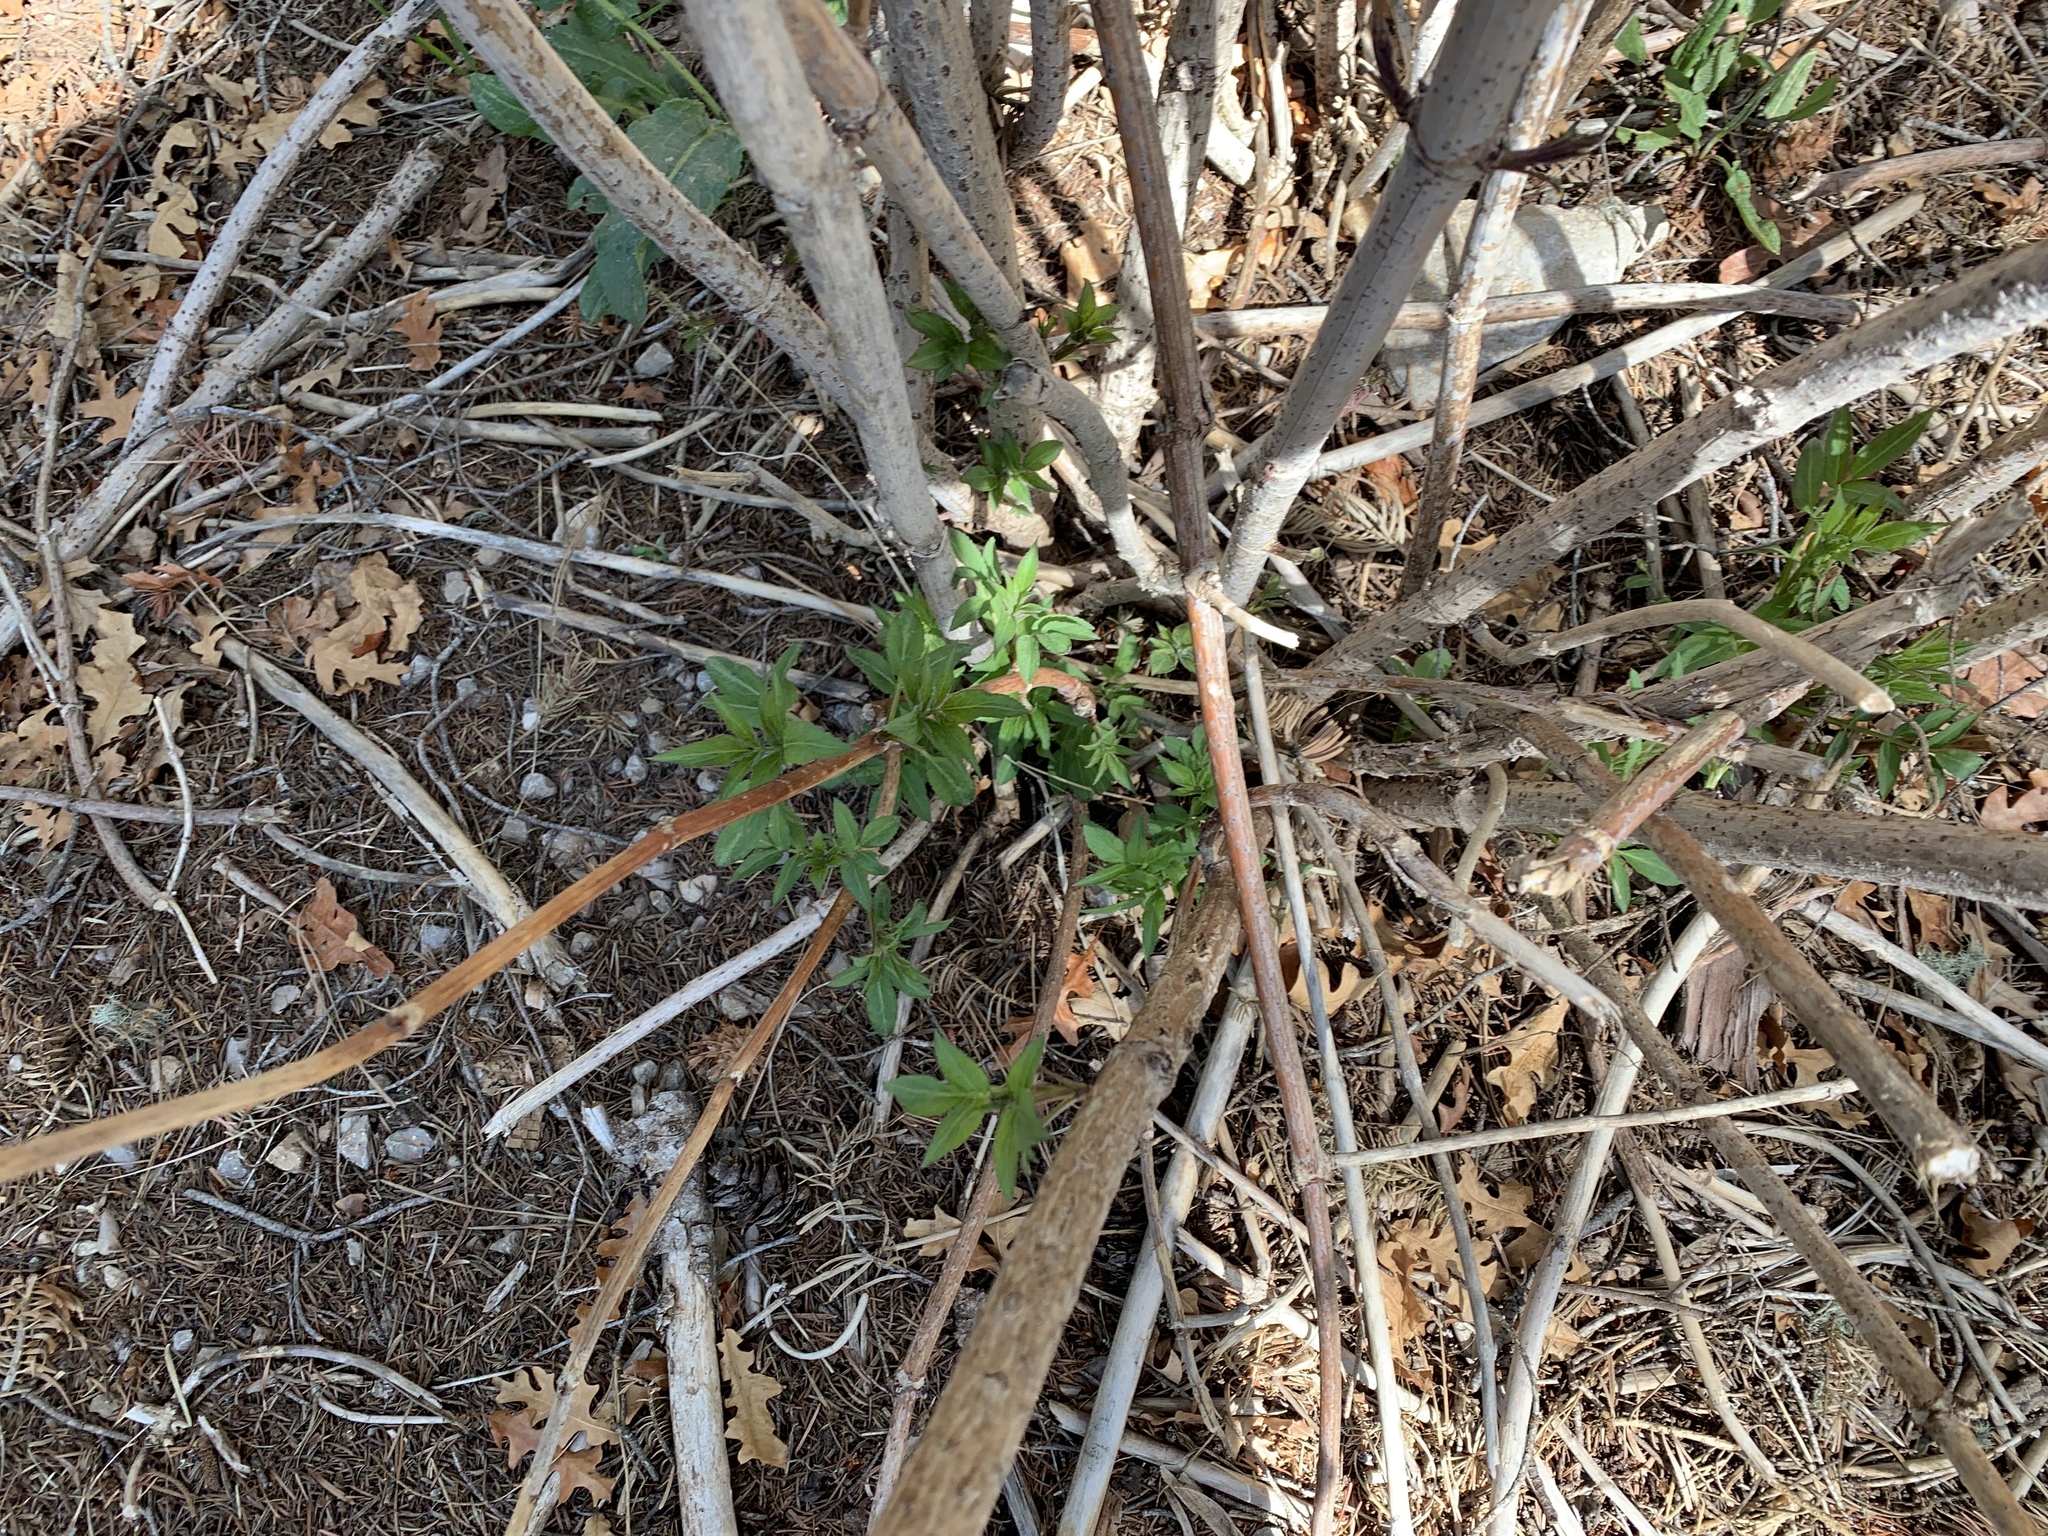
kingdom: Plantae
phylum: Tracheophyta
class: Magnoliopsida
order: Dipsacales
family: Viburnaceae
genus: Sambucus
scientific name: Sambucus cerulea
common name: Blue elder
